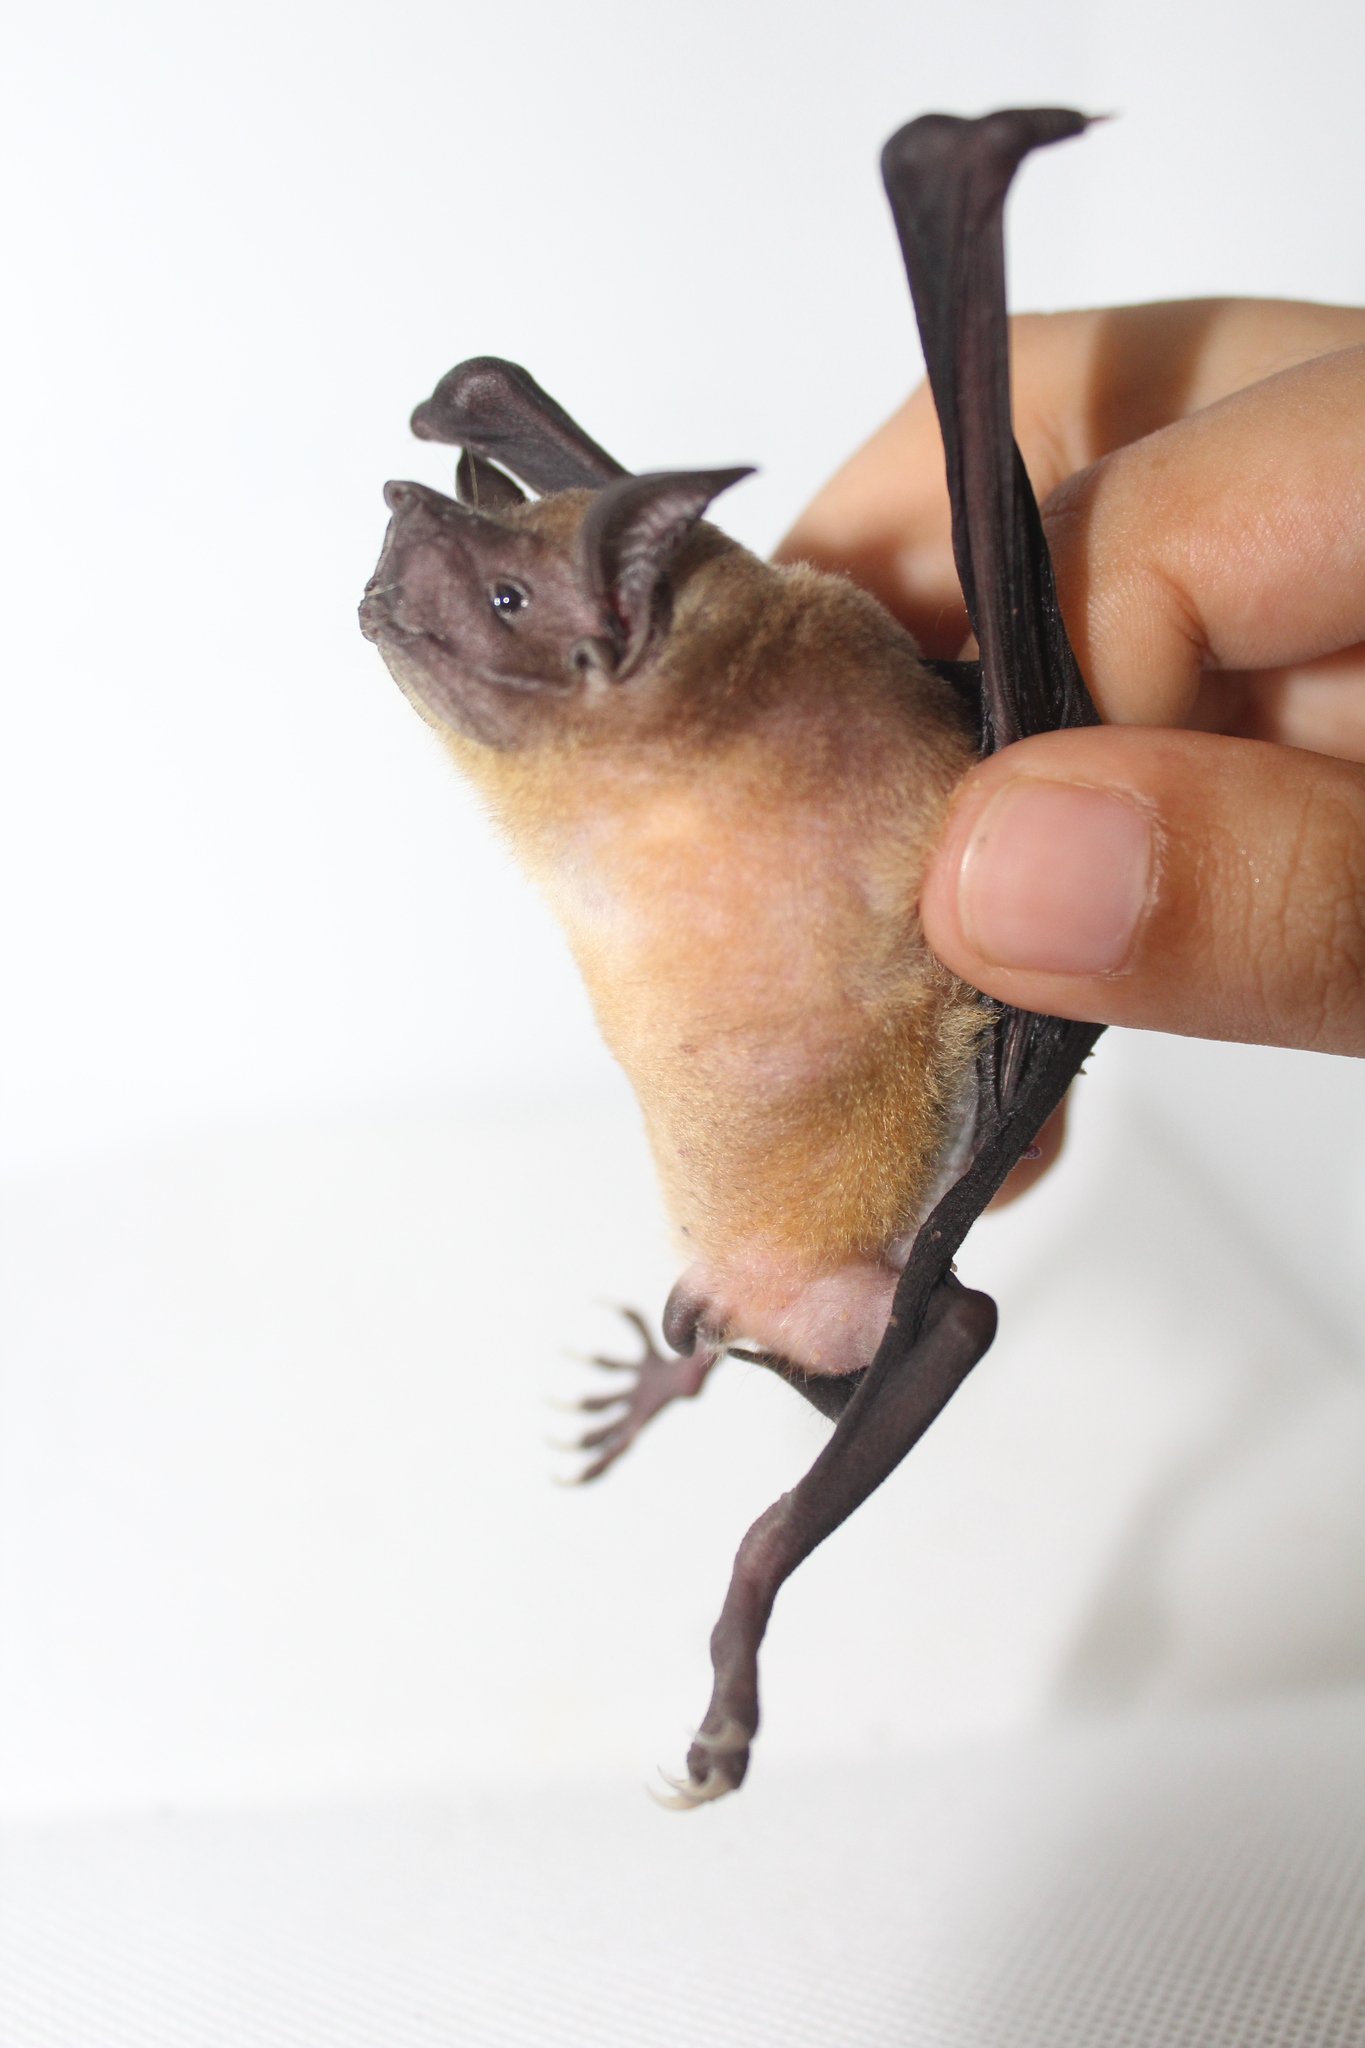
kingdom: Animalia
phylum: Chordata
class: Mammalia
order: Chiroptera
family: Noctilionidae
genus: Noctilio
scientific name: Noctilio albiventris
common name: Lesser bulldog bat
